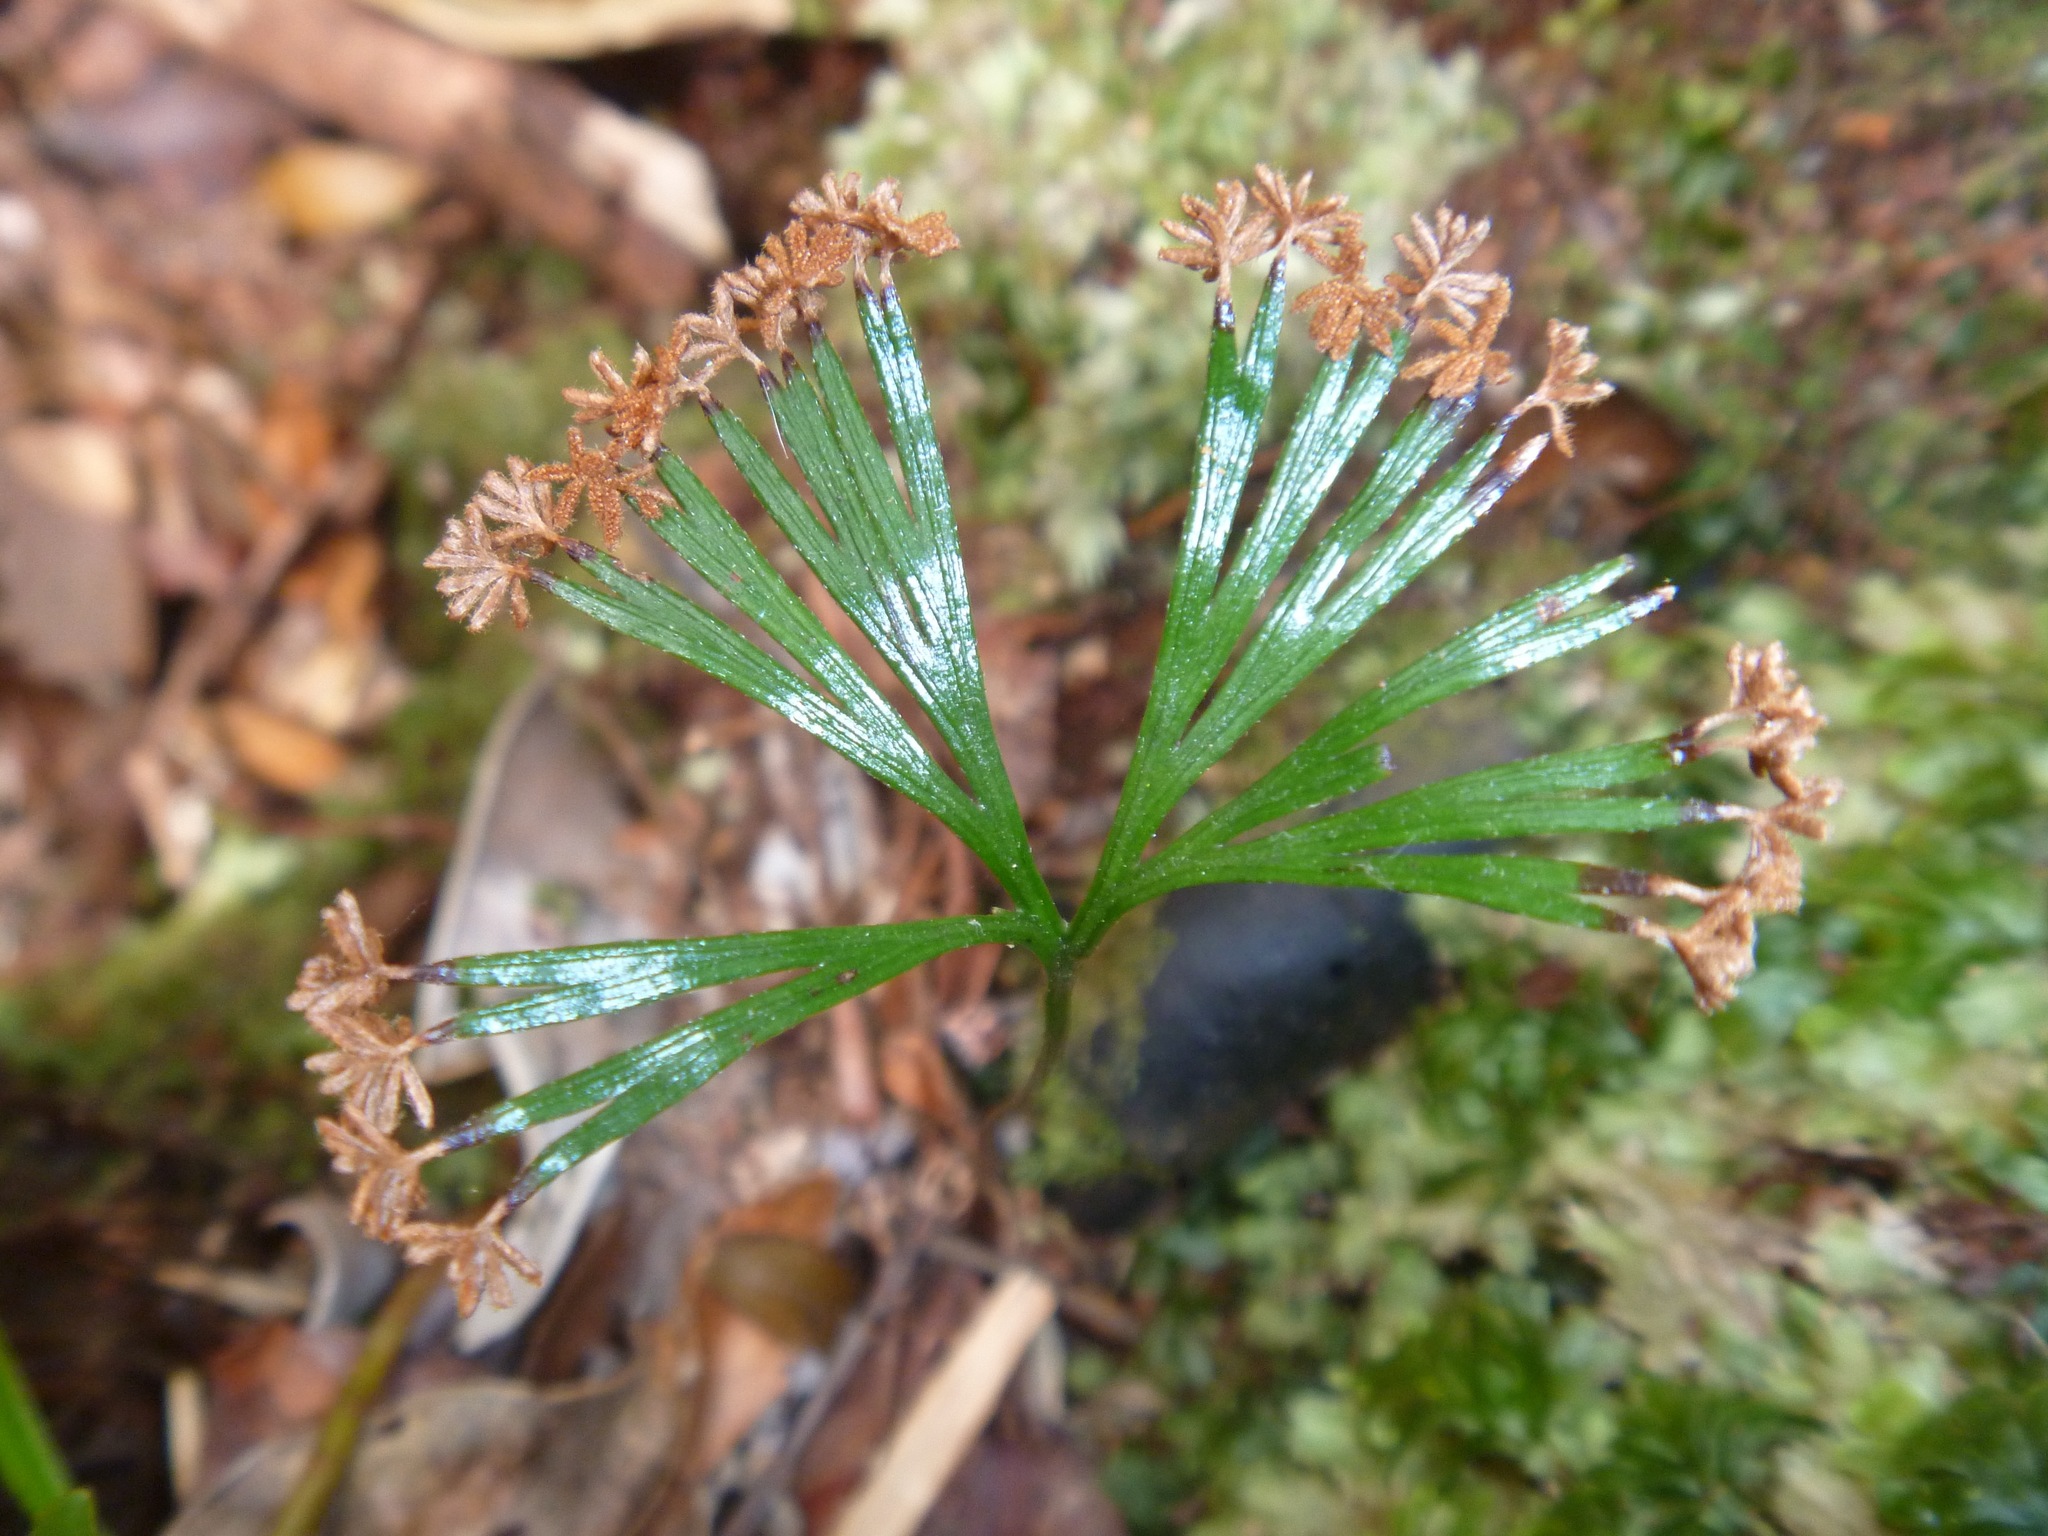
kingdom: Plantae
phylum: Tracheophyta
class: Polypodiopsida
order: Schizaeales
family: Schizaeaceae
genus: Schizaea
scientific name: Schizaea dichotoma
